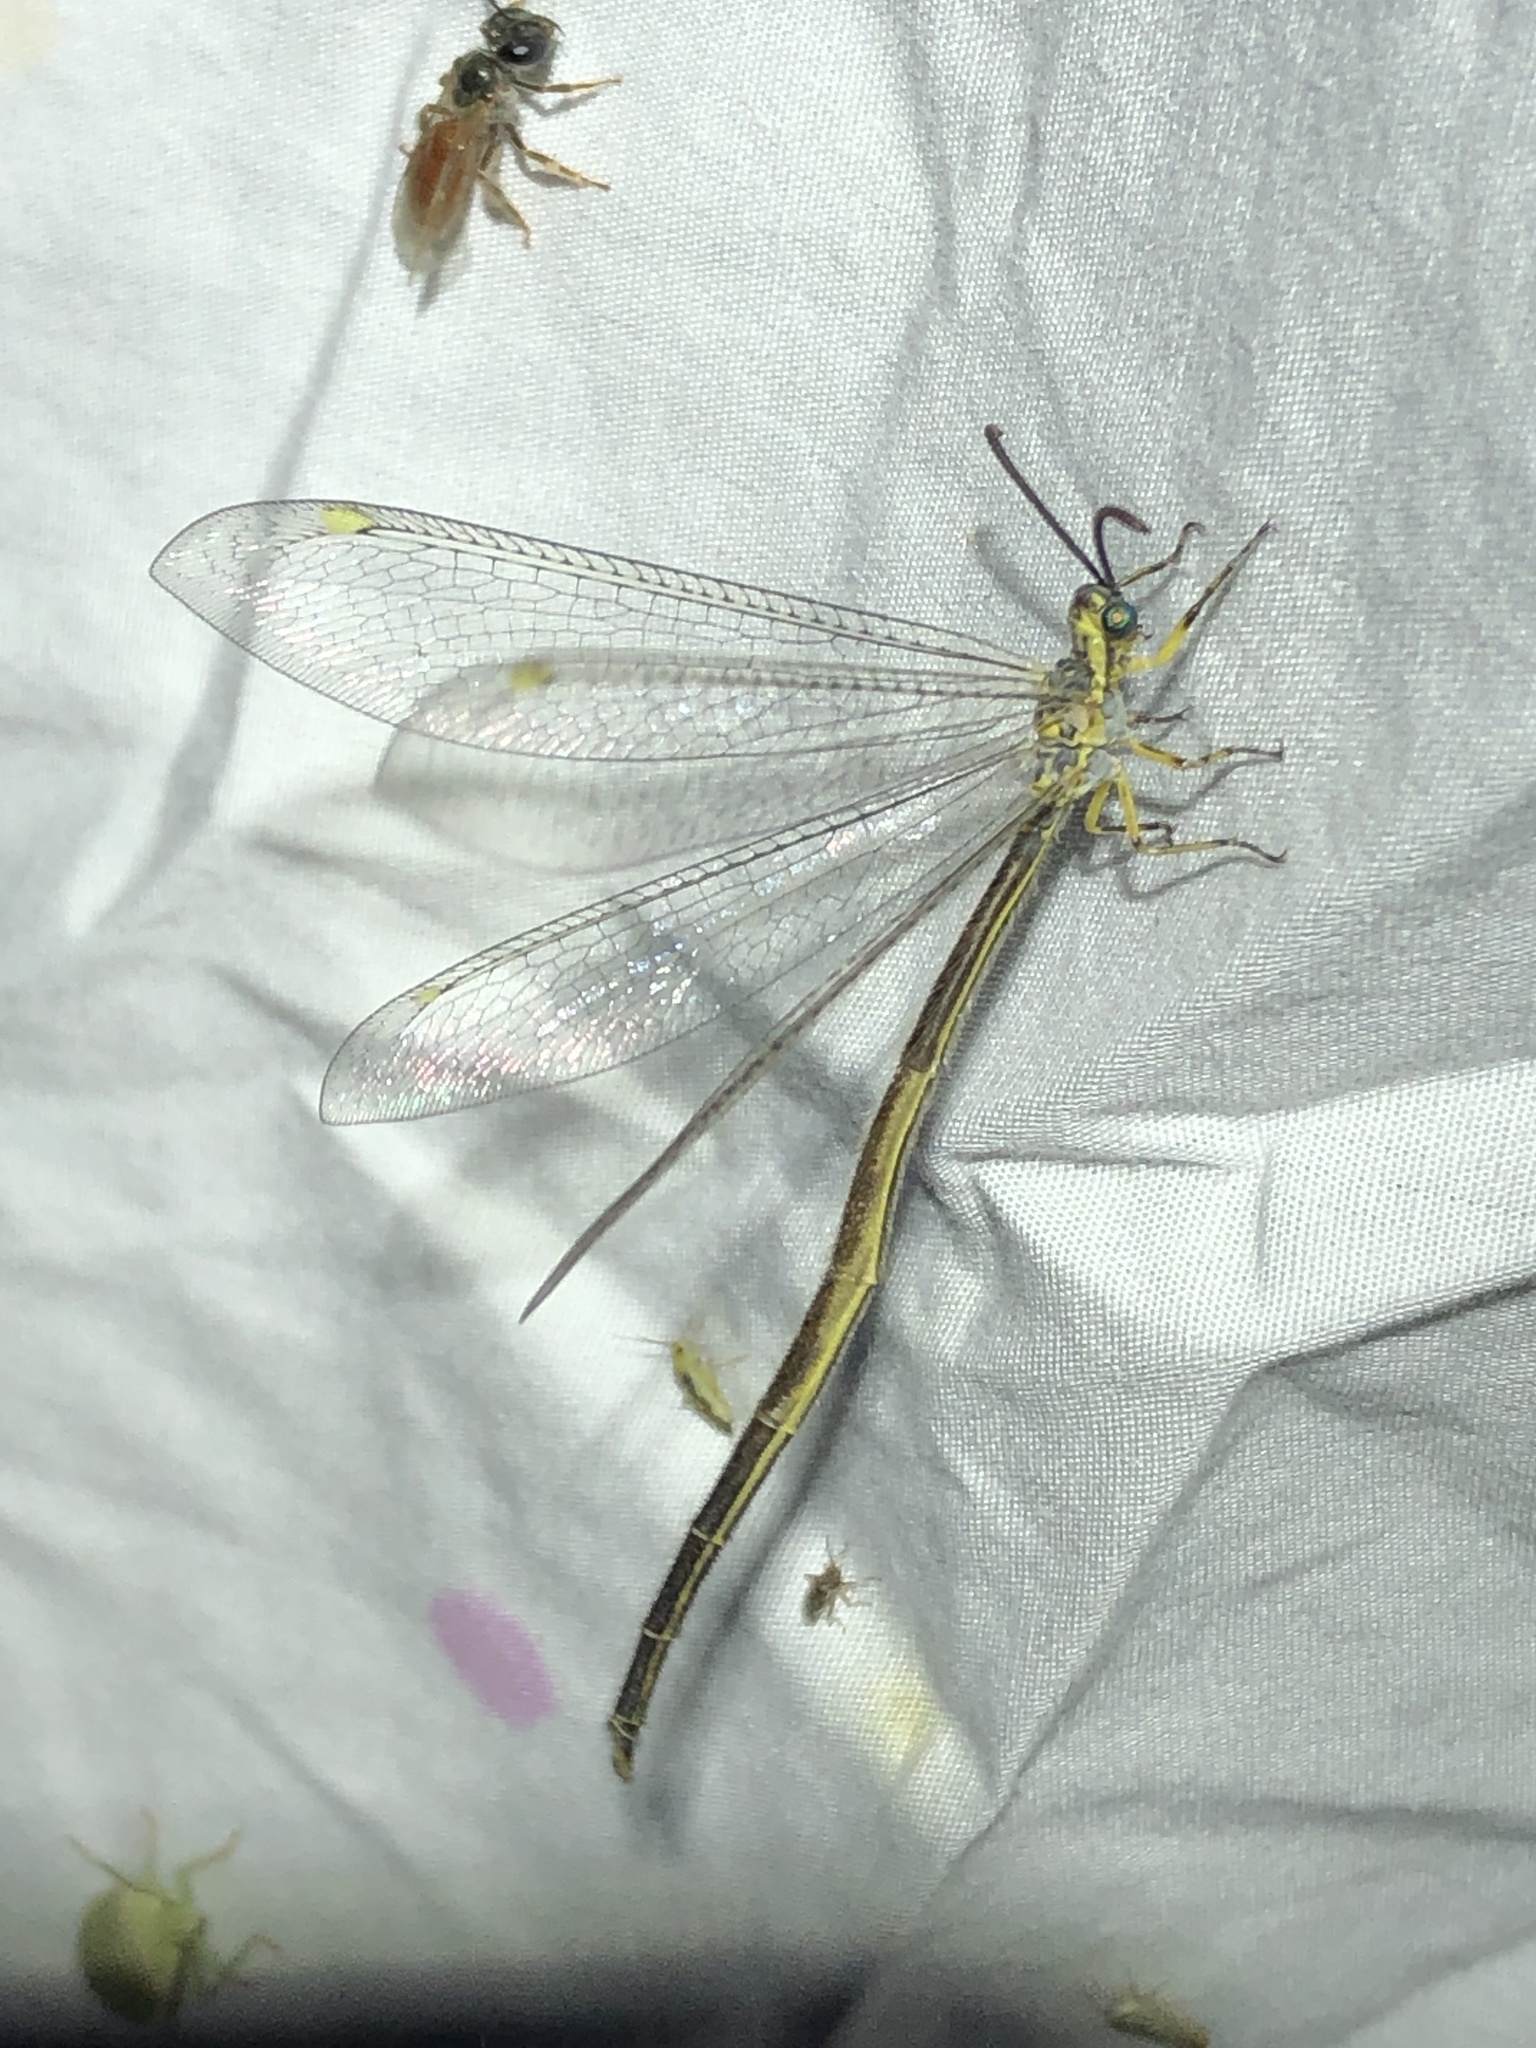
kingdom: Animalia
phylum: Arthropoda
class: Insecta
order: Neuroptera
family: Myrmeleontidae
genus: Scotoleon
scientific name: Scotoleon nigrilabris
